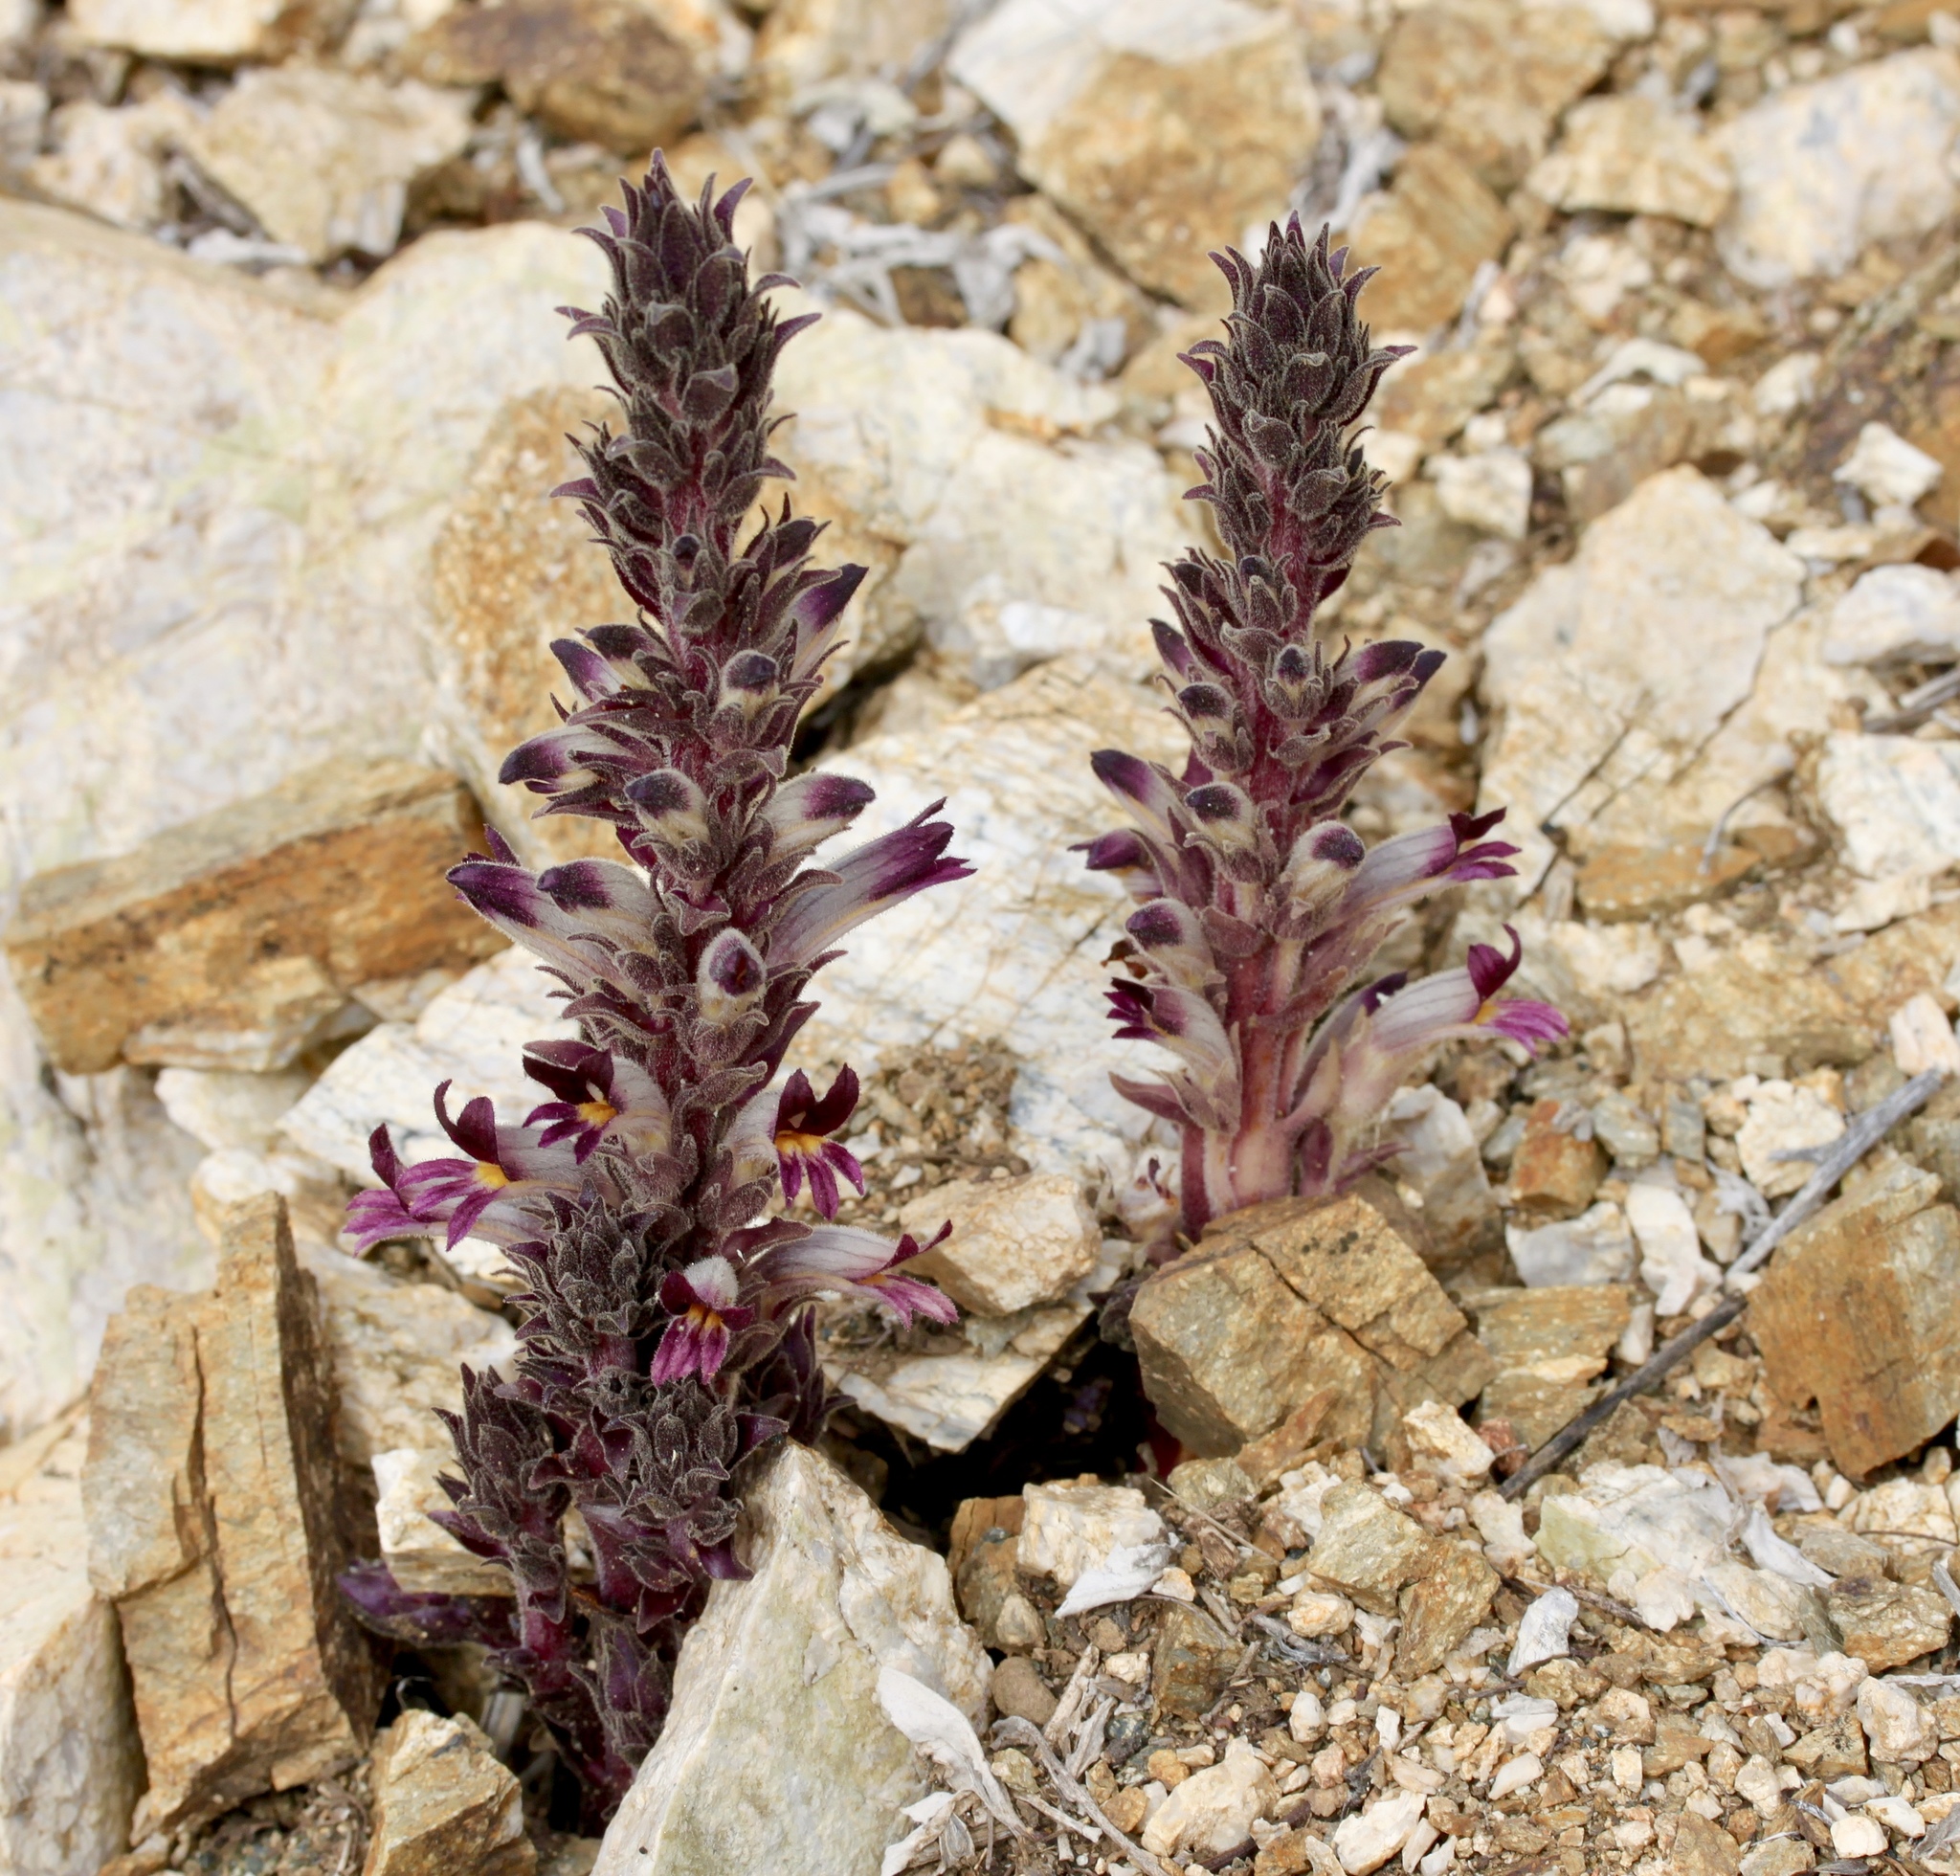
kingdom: Plantae
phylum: Tracheophyta
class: Magnoliopsida
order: Lamiales
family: Orobanchaceae
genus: Aphyllon
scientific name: Aphyllon cooperi
